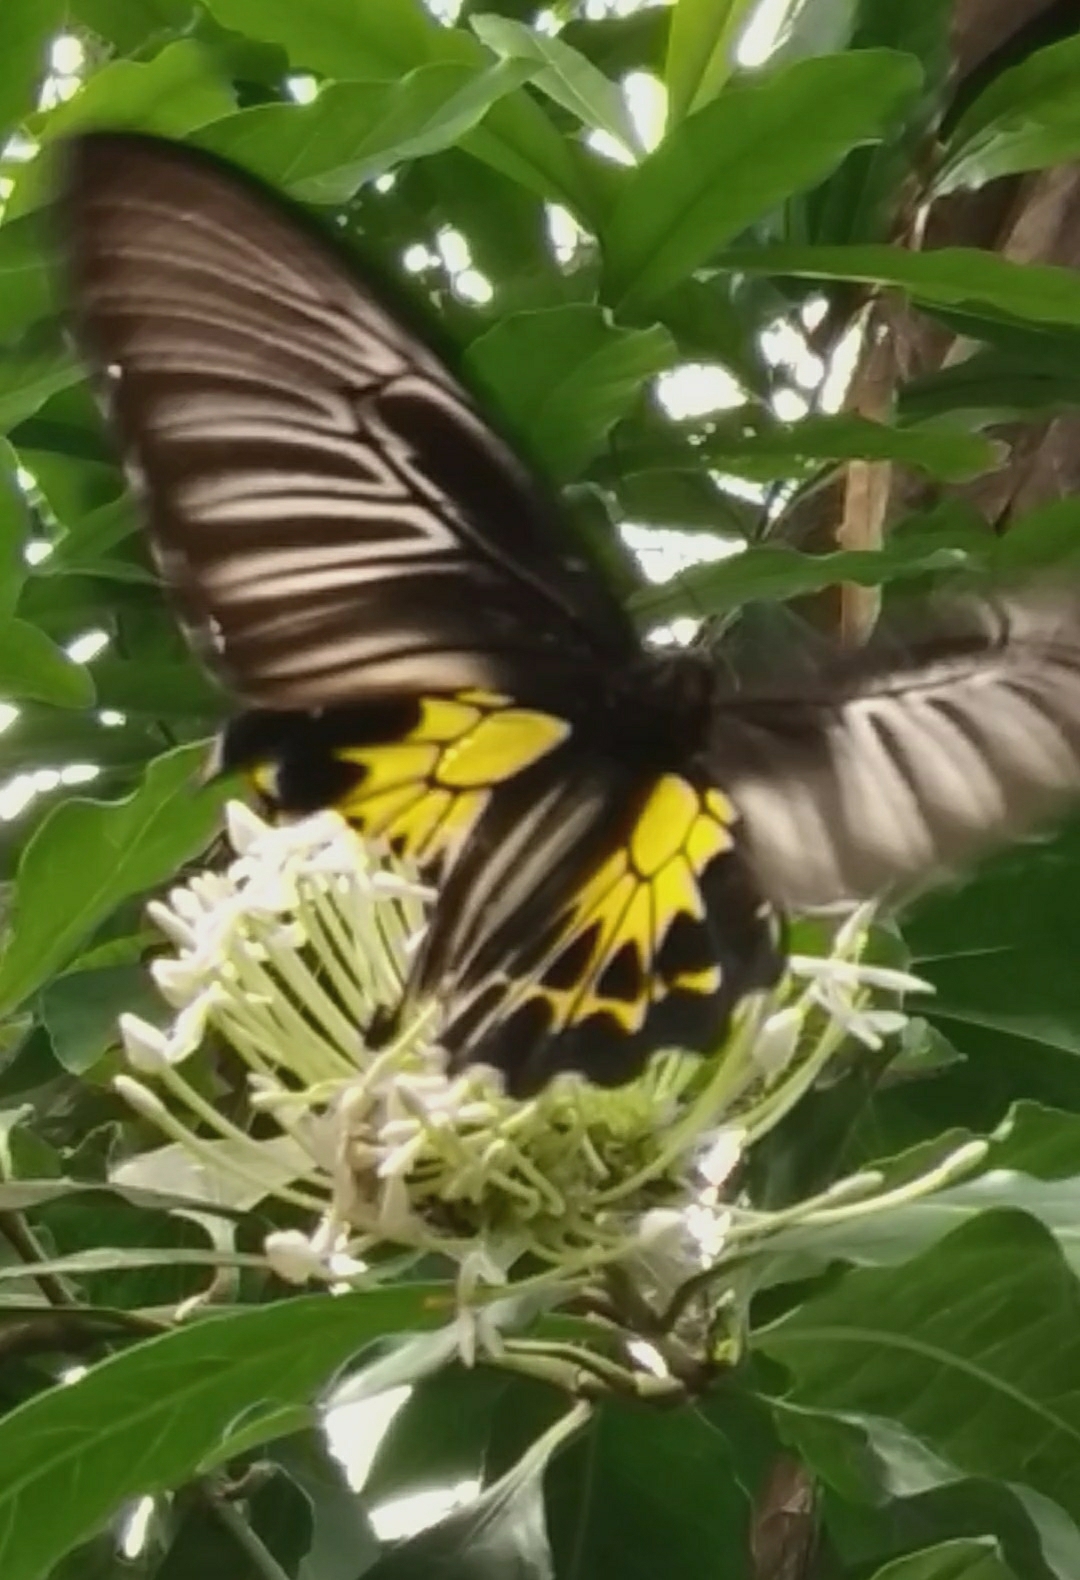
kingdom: Animalia
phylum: Arthropoda
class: Insecta
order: Lepidoptera
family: Papilionidae
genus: Troides
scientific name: Troides minos
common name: Malabar birdwing
